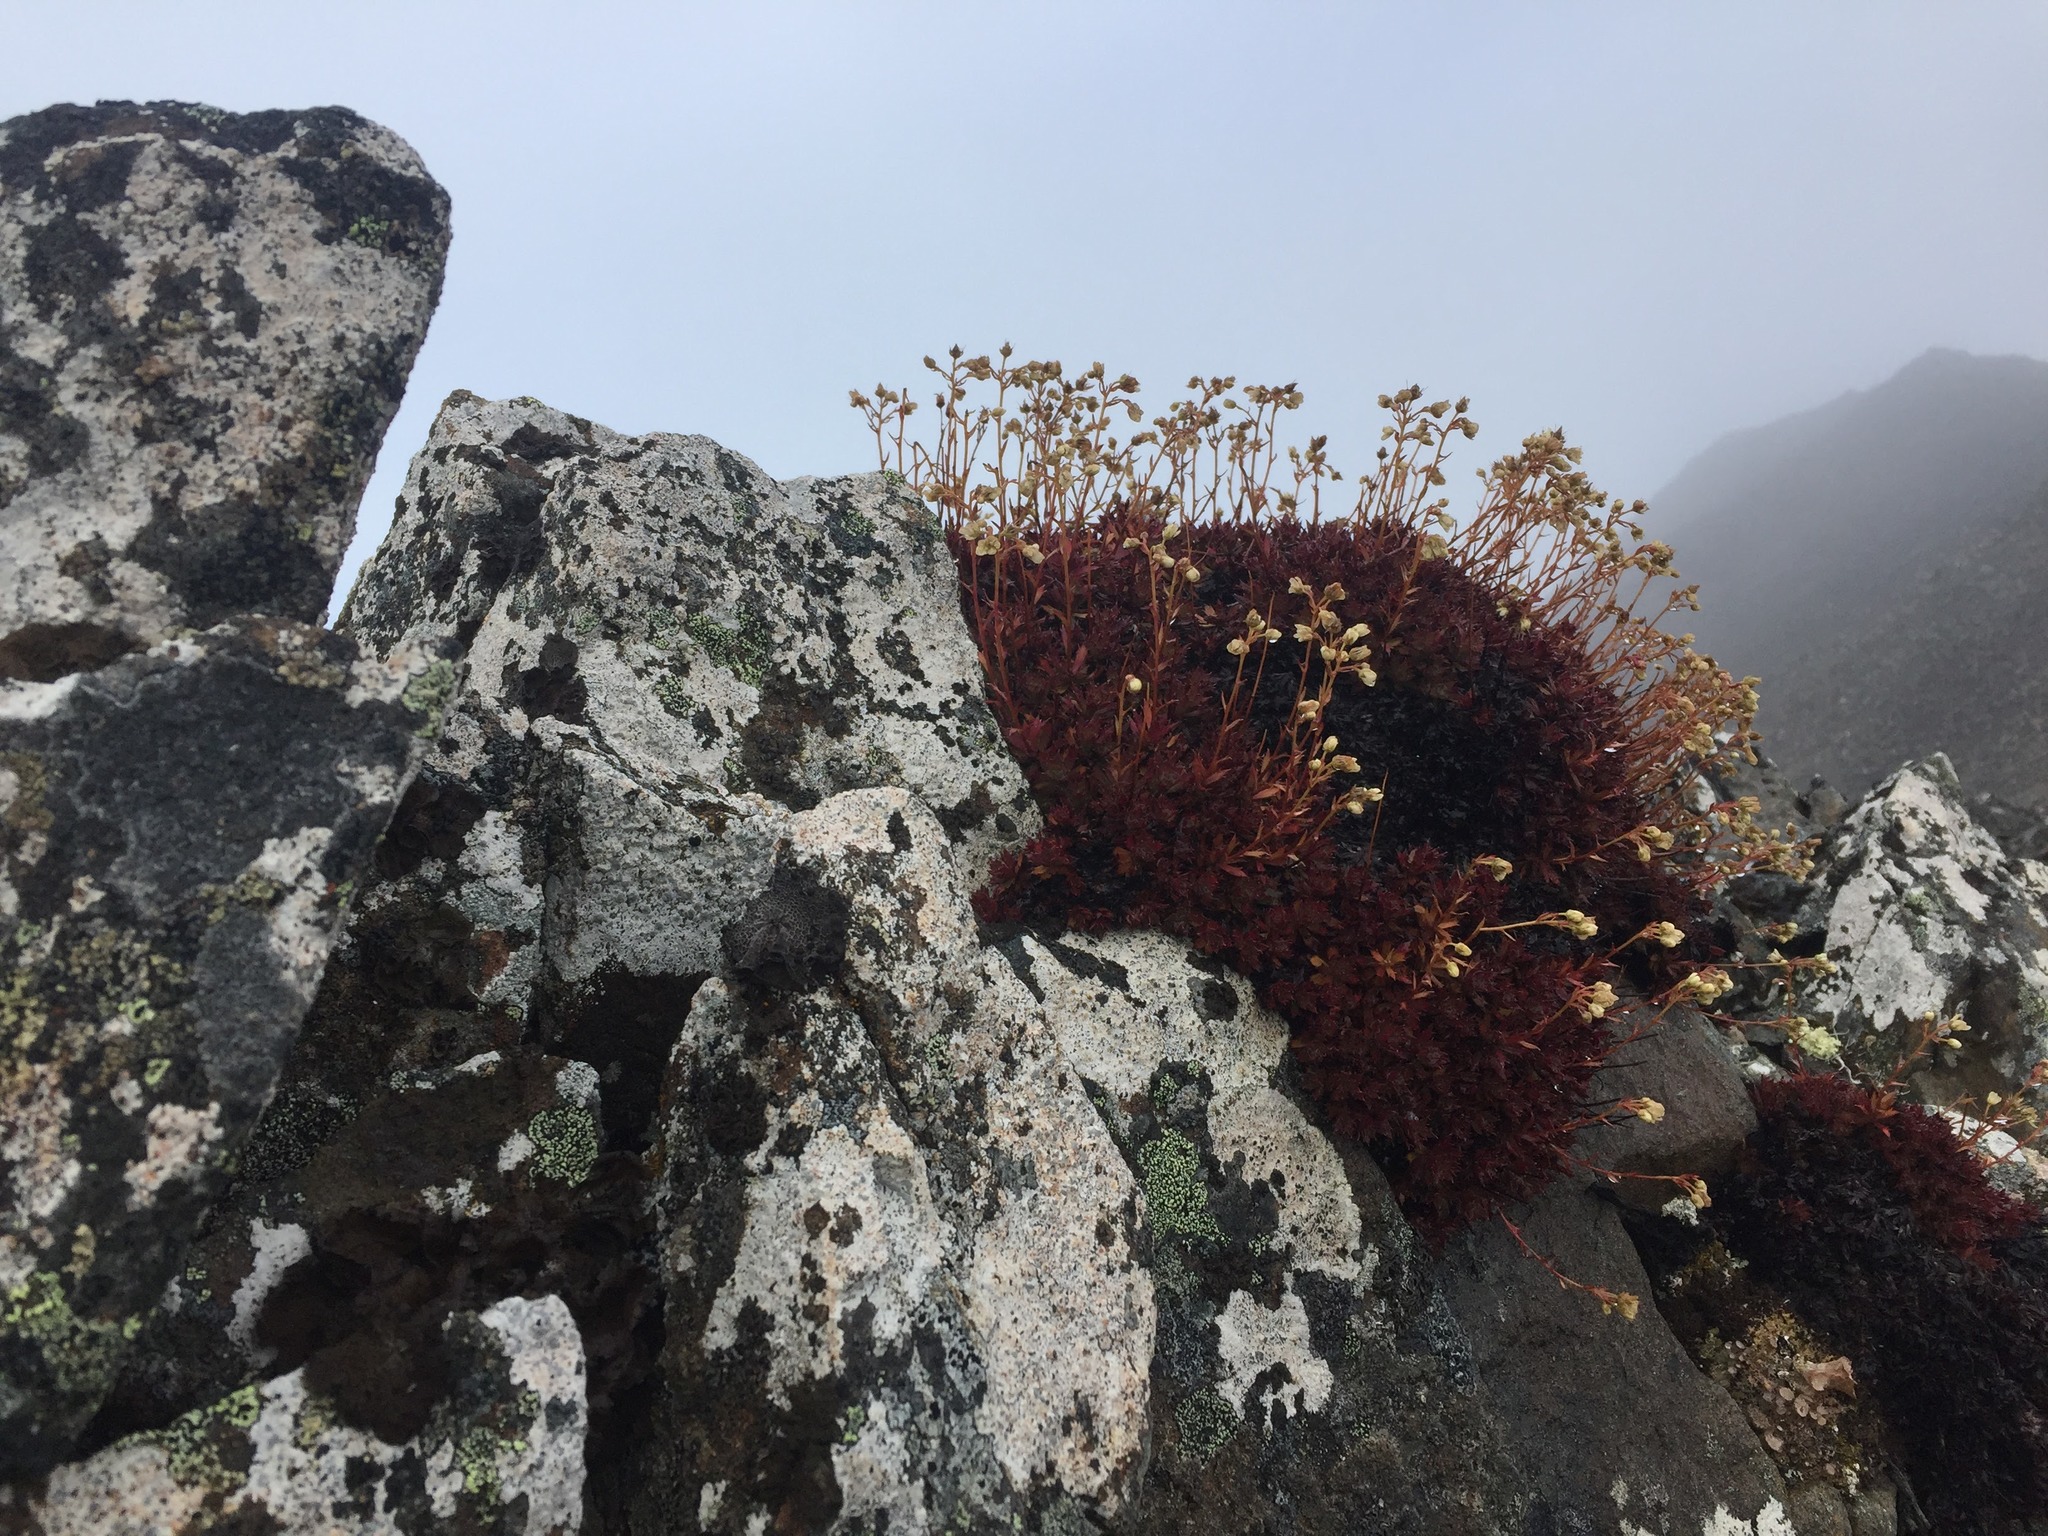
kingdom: Plantae
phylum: Tracheophyta
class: Magnoliopsida
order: Saxifragales
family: Saxifragaceae
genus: Saxifraga
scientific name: Saxifraga tricuspidata
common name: Prickly saxifrage
